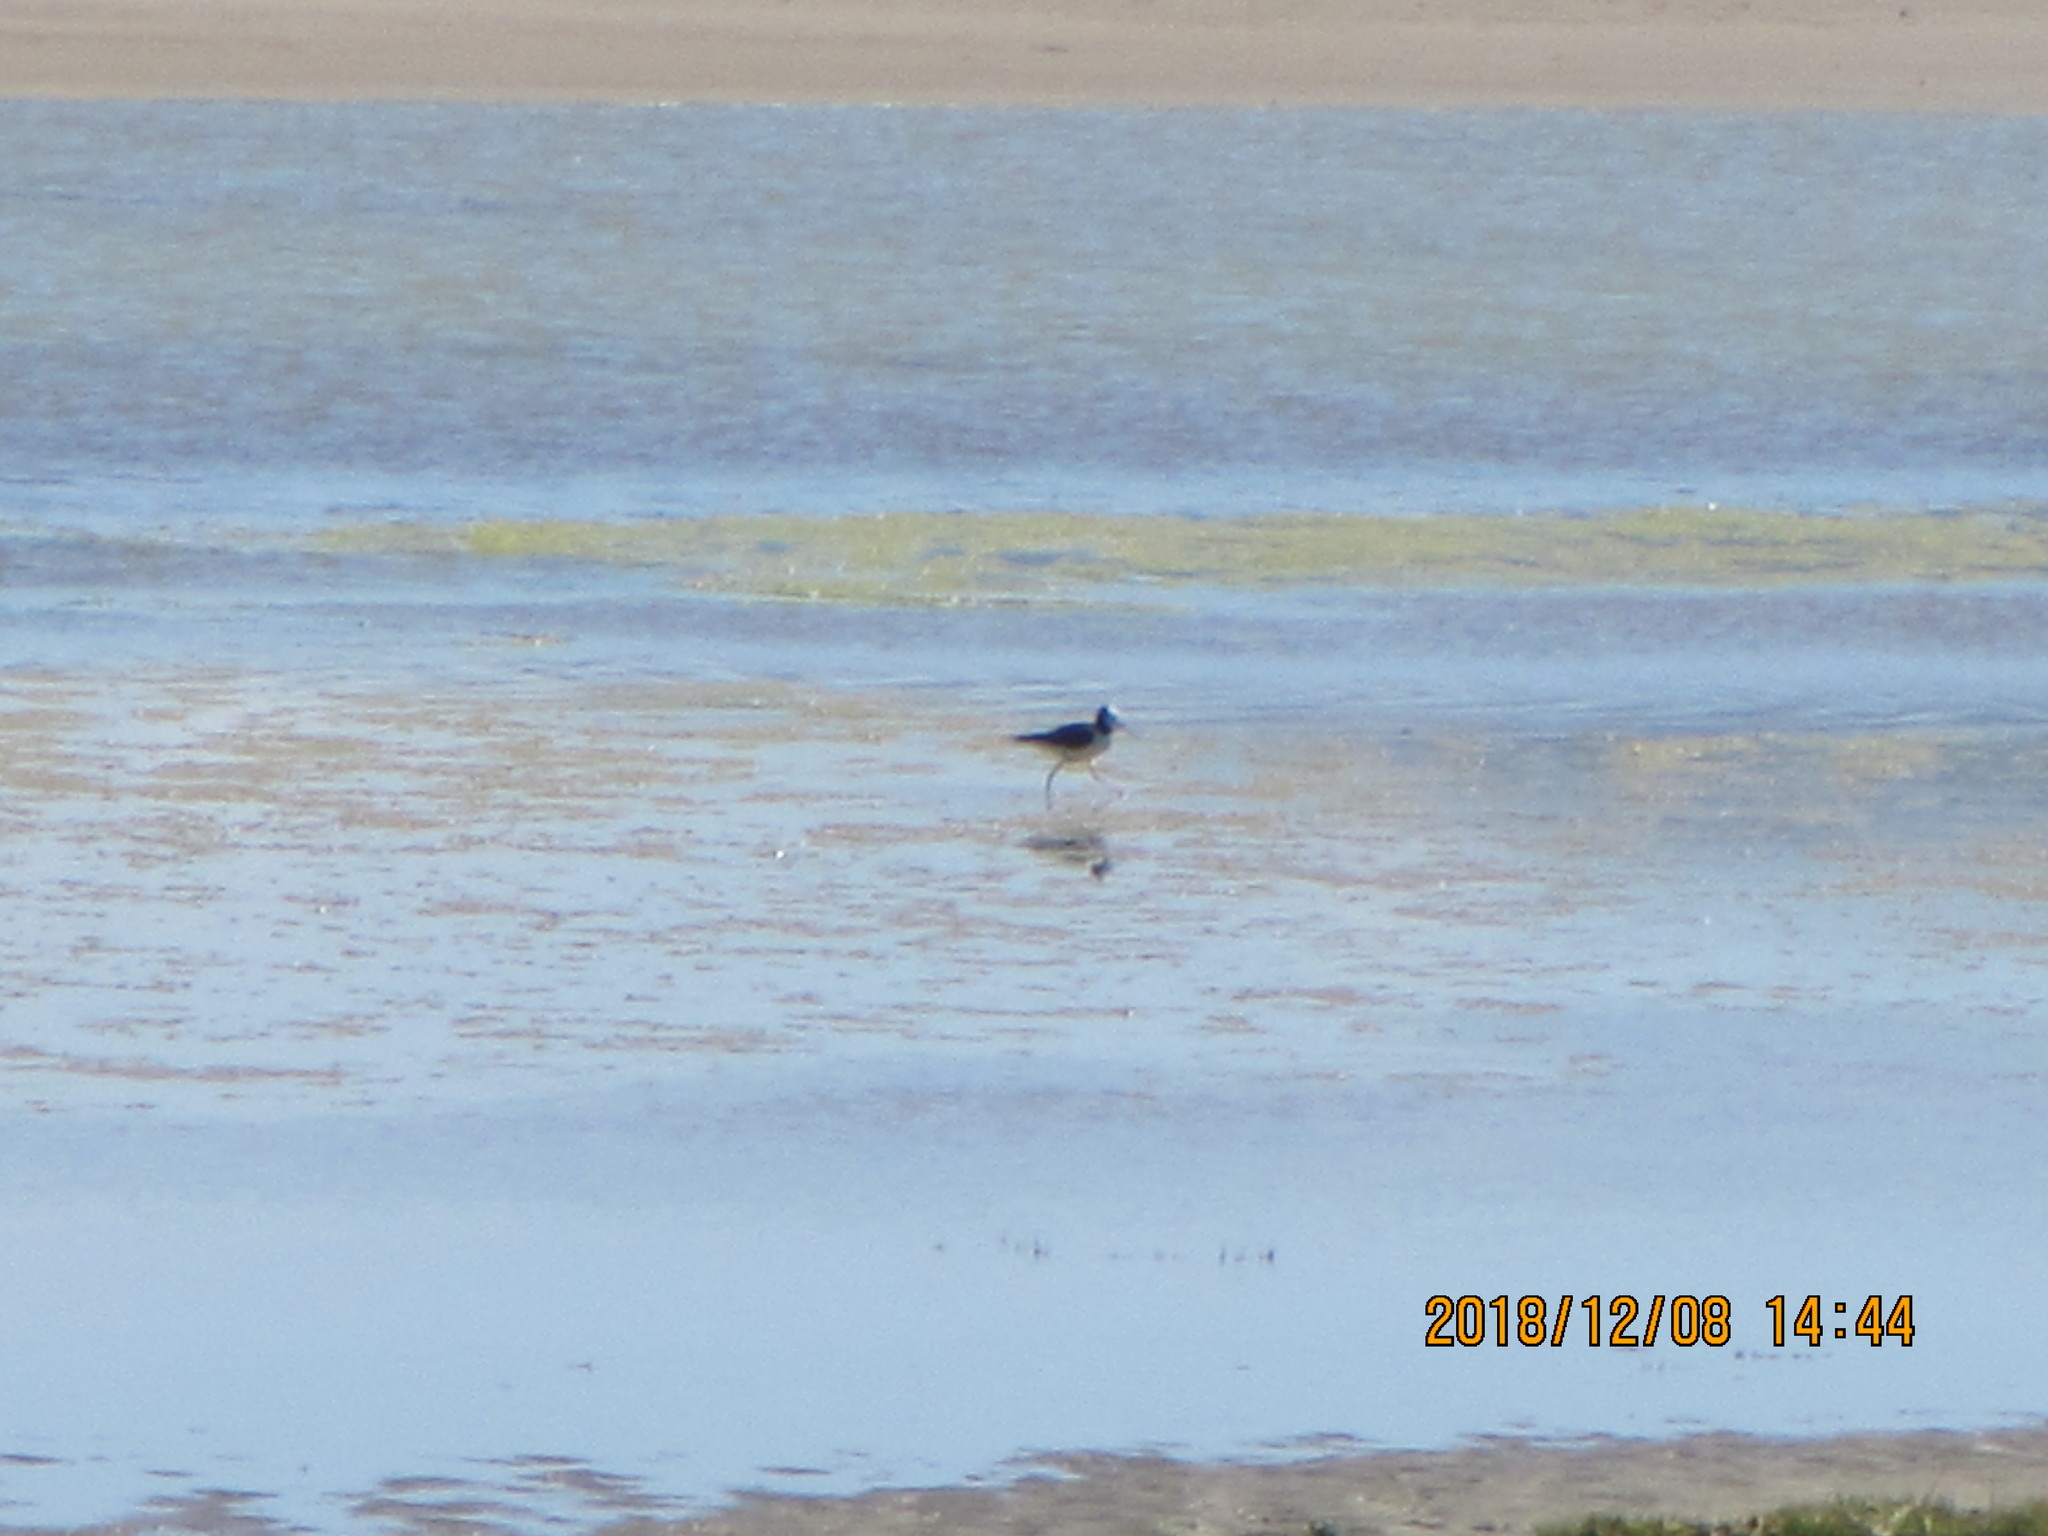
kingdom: Animalia
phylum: Chordata
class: Aves
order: Charadriiformes
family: Recurvirostridae
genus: Himantopus
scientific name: Himantopus leucocephalus
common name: White-headed stilt
